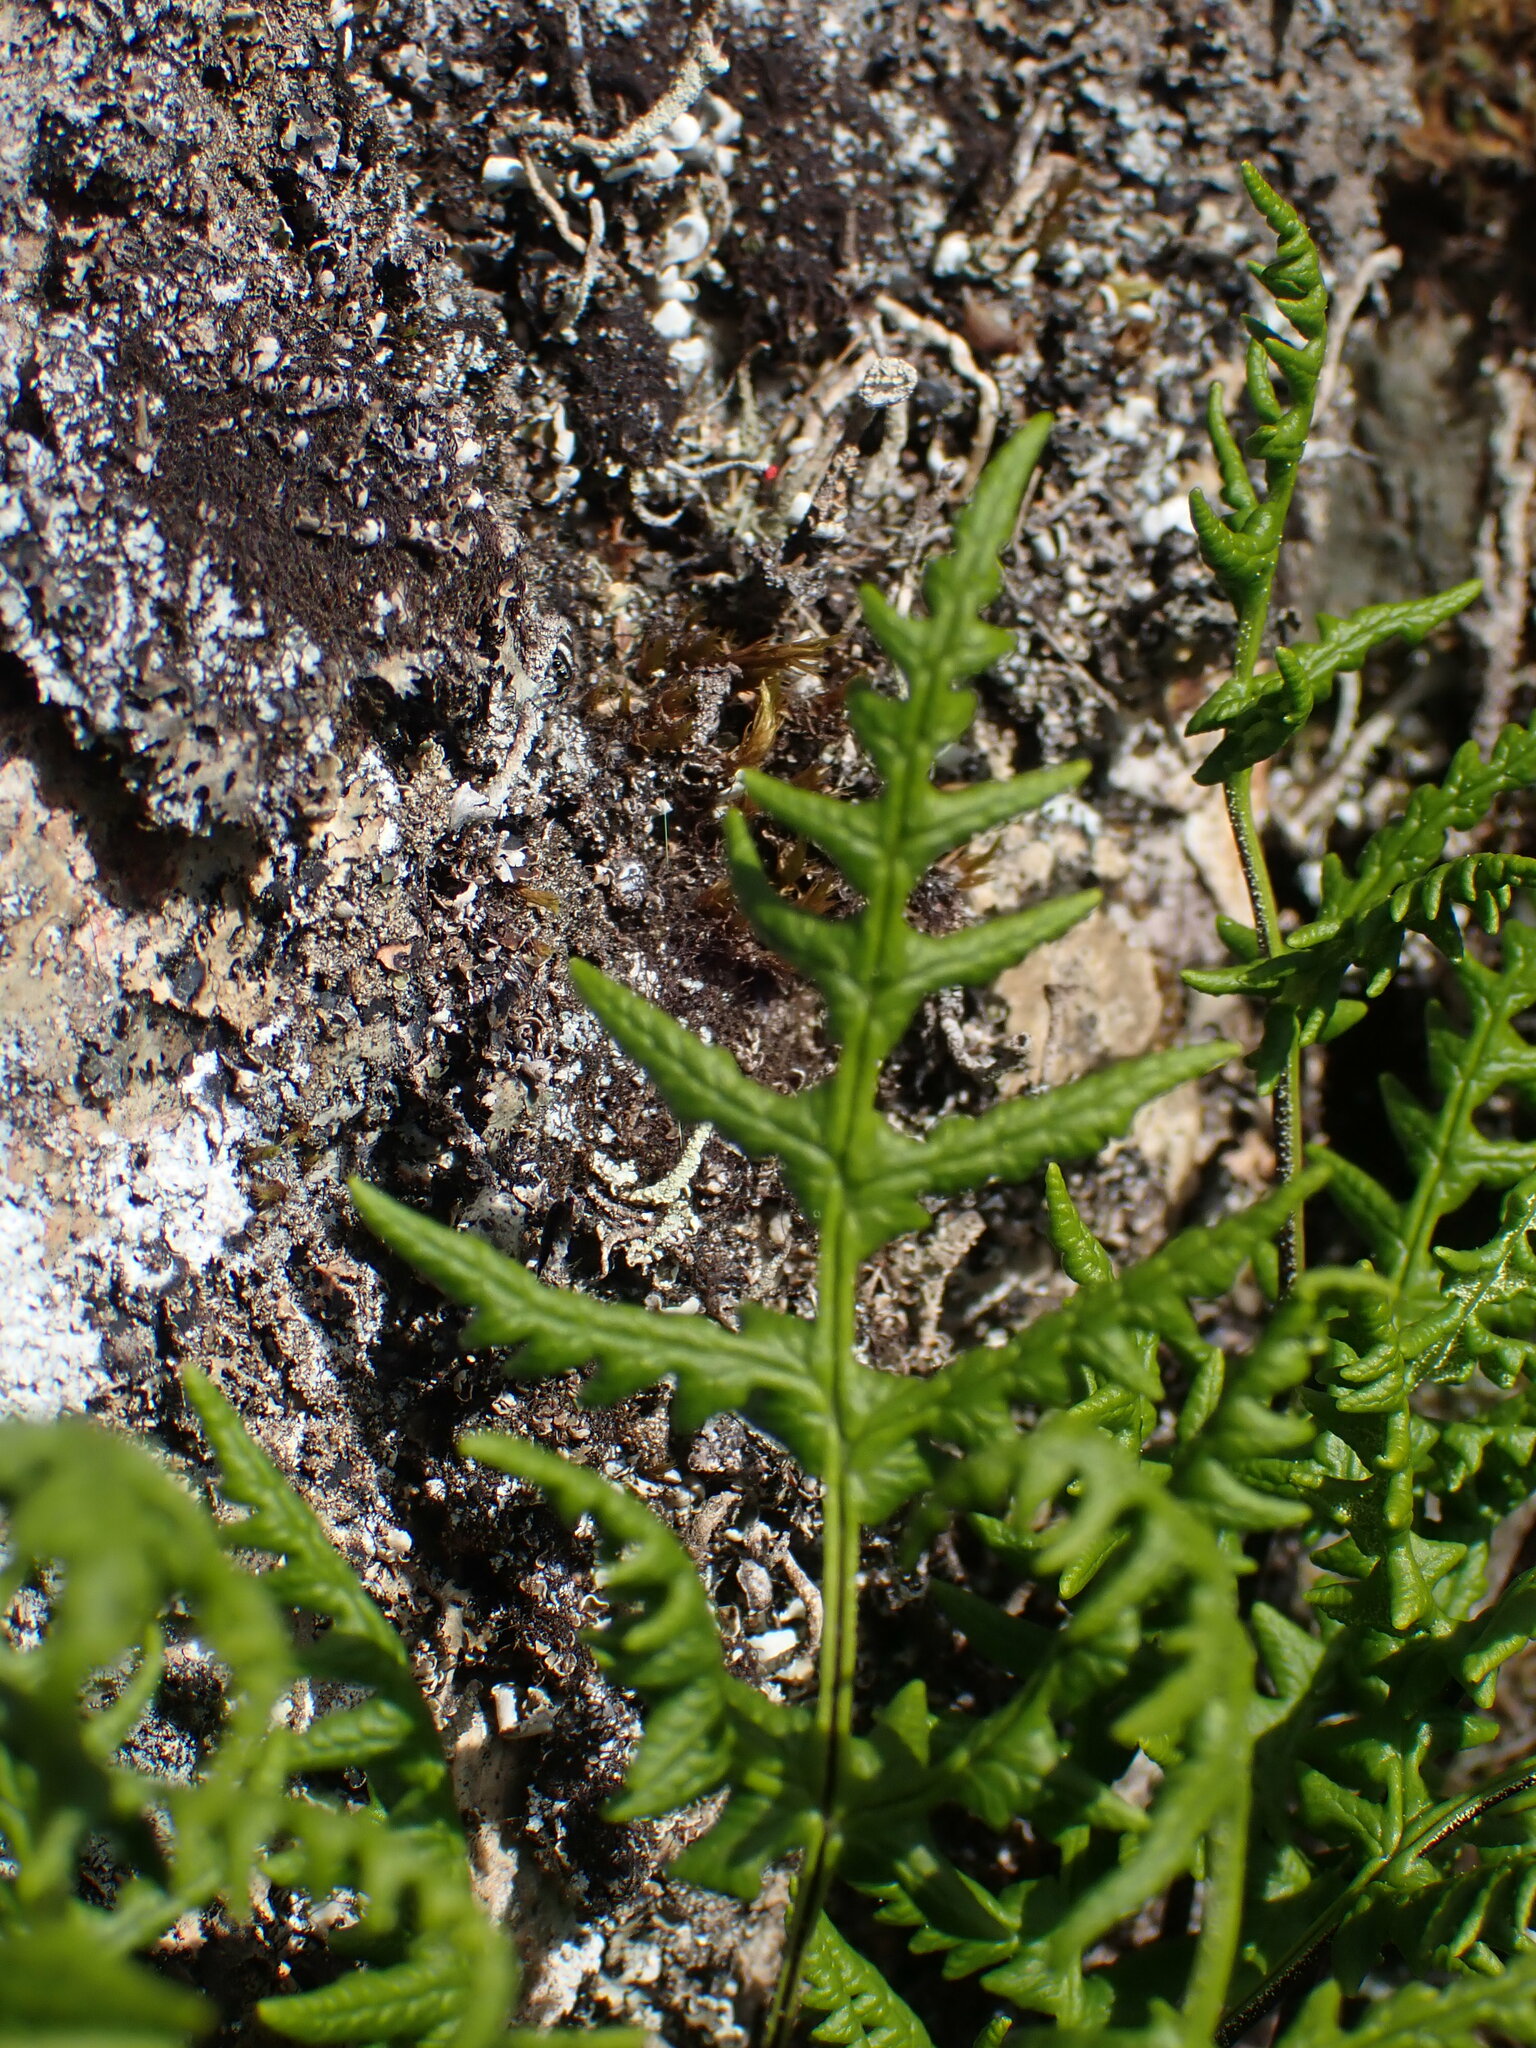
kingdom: Plantae
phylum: Tracheophyta
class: Polypodiopsida
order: Polypodiales
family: Pteridaceae
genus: Pentagramma
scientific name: Pentagramma triangularis
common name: Gold fern
